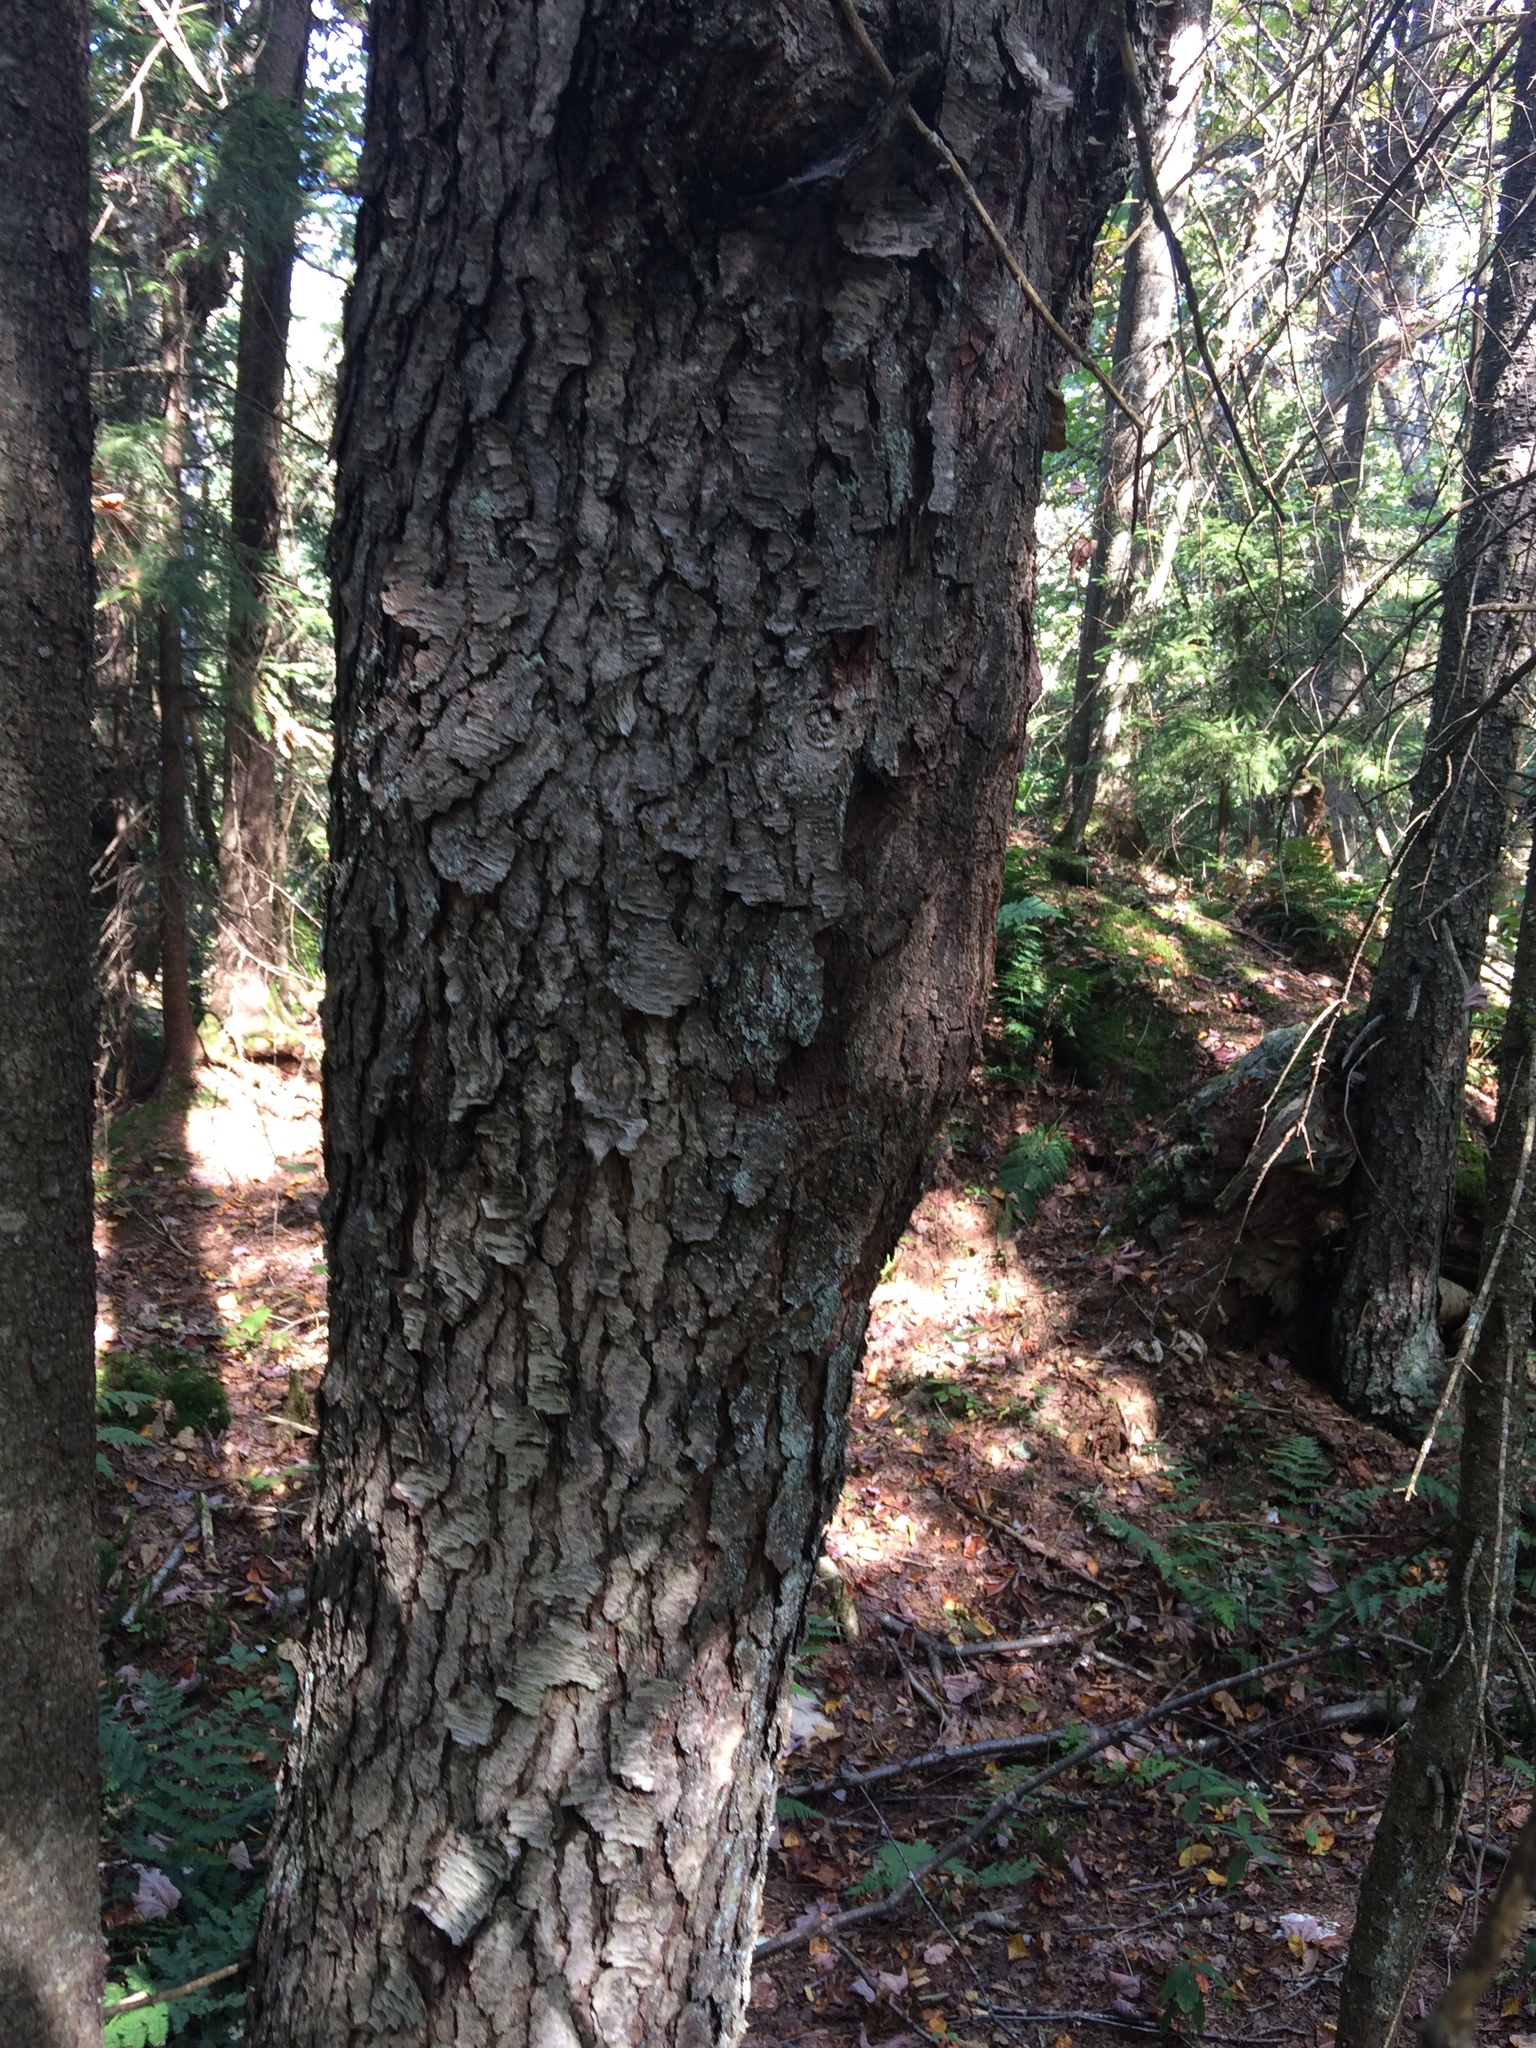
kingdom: Plantae
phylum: Tracheophyta
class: Magnoliopsida
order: Rosales
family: Rosaceae
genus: Prunus
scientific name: Prunus serotina
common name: Black cherry
